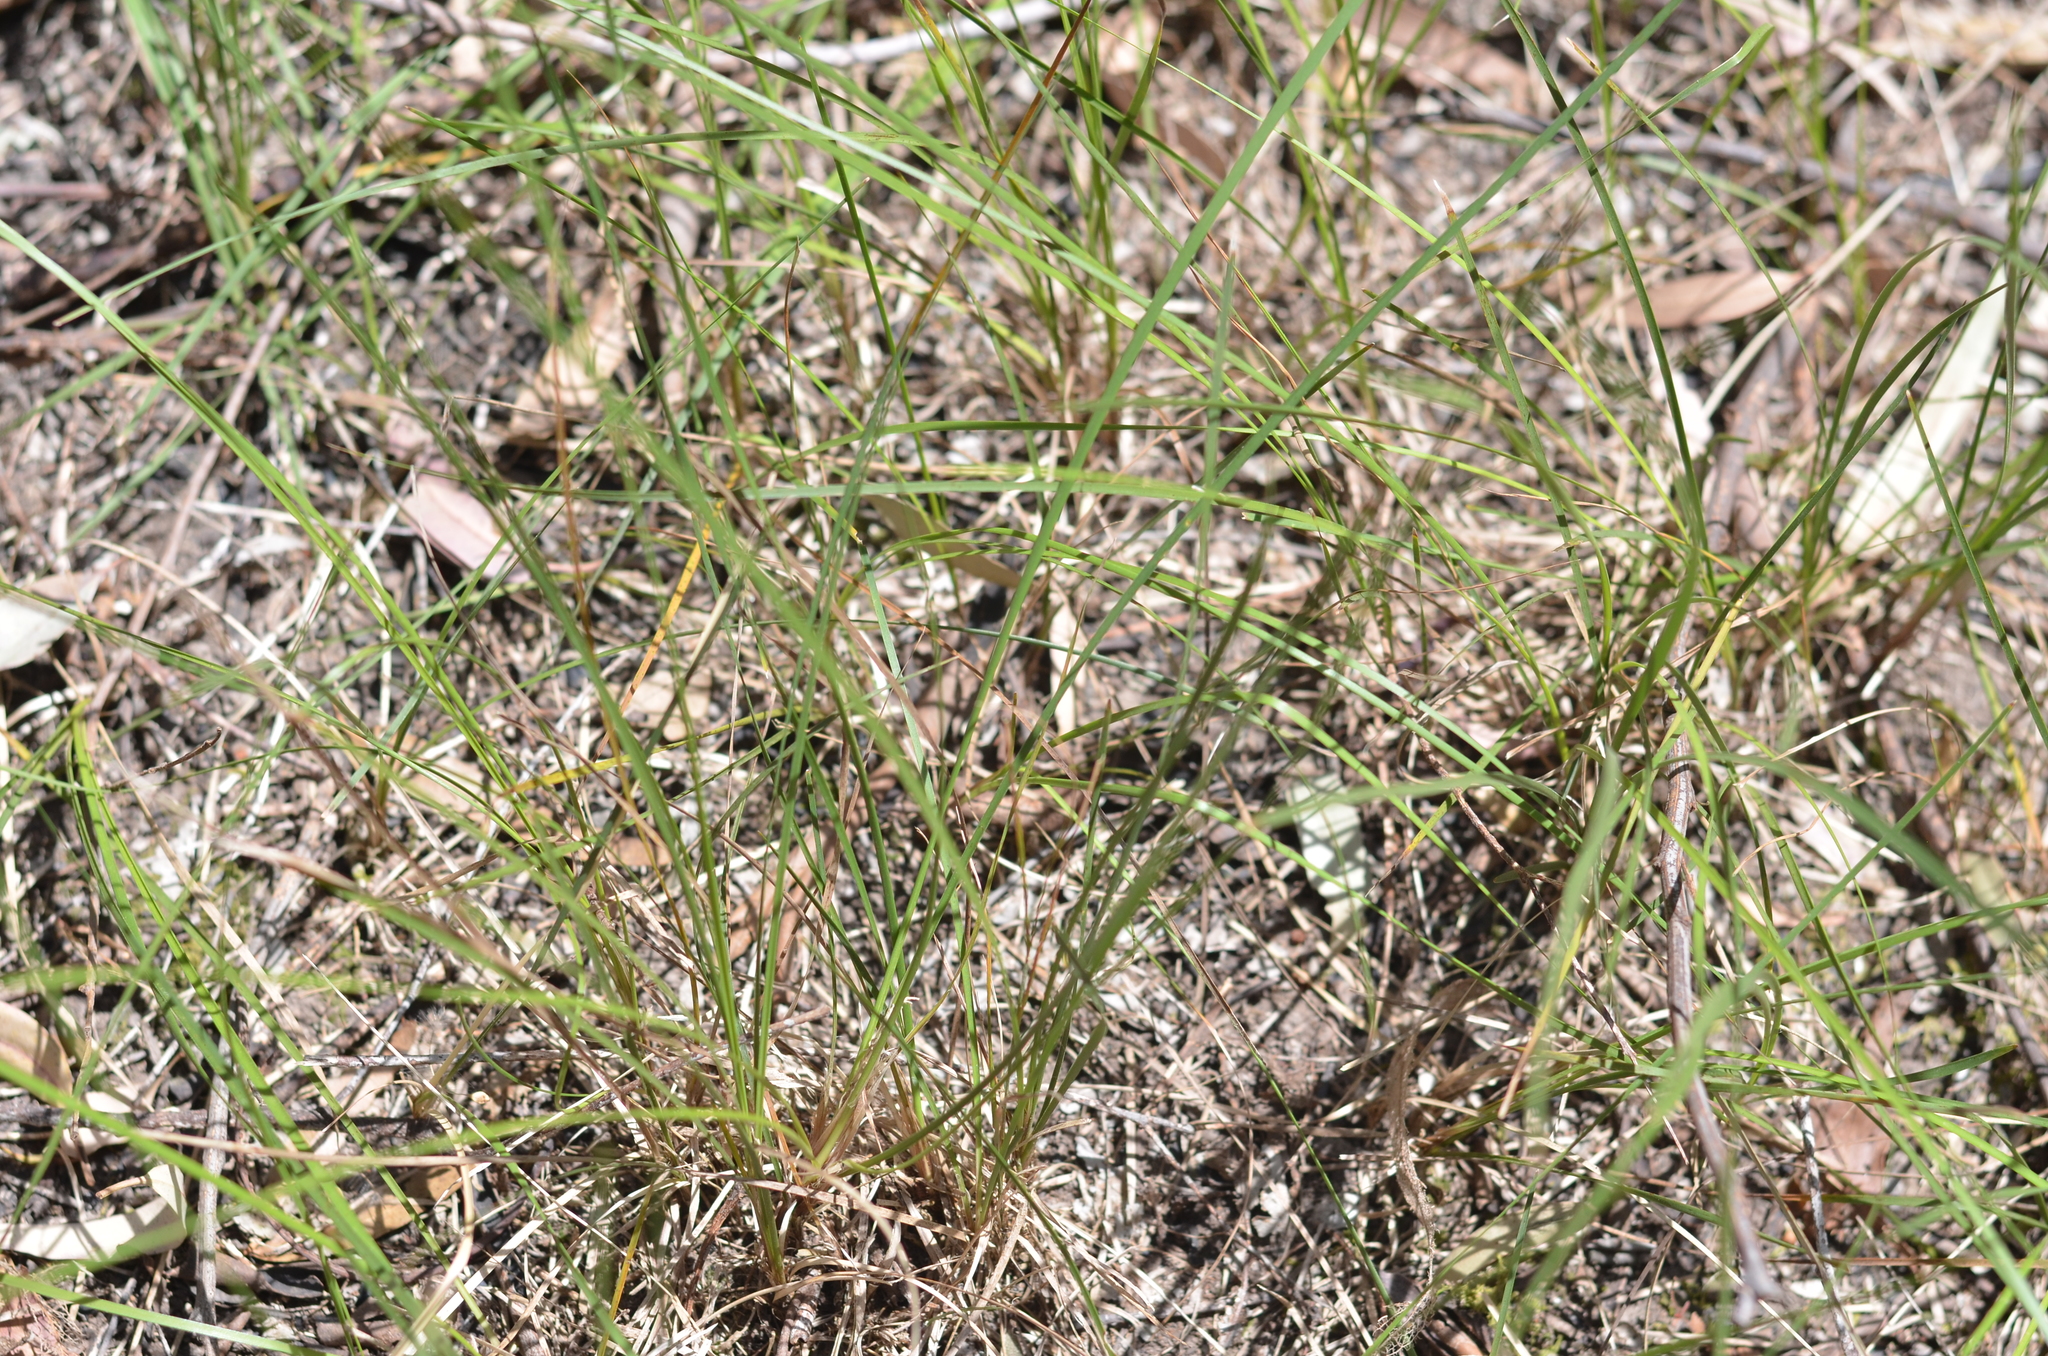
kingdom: Plantae
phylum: Tracheophyta
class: Liliopsida
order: Asparagales
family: Asparagaceae
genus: Lomandra
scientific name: Lomandra filiformis
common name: Wattle mat-rush
